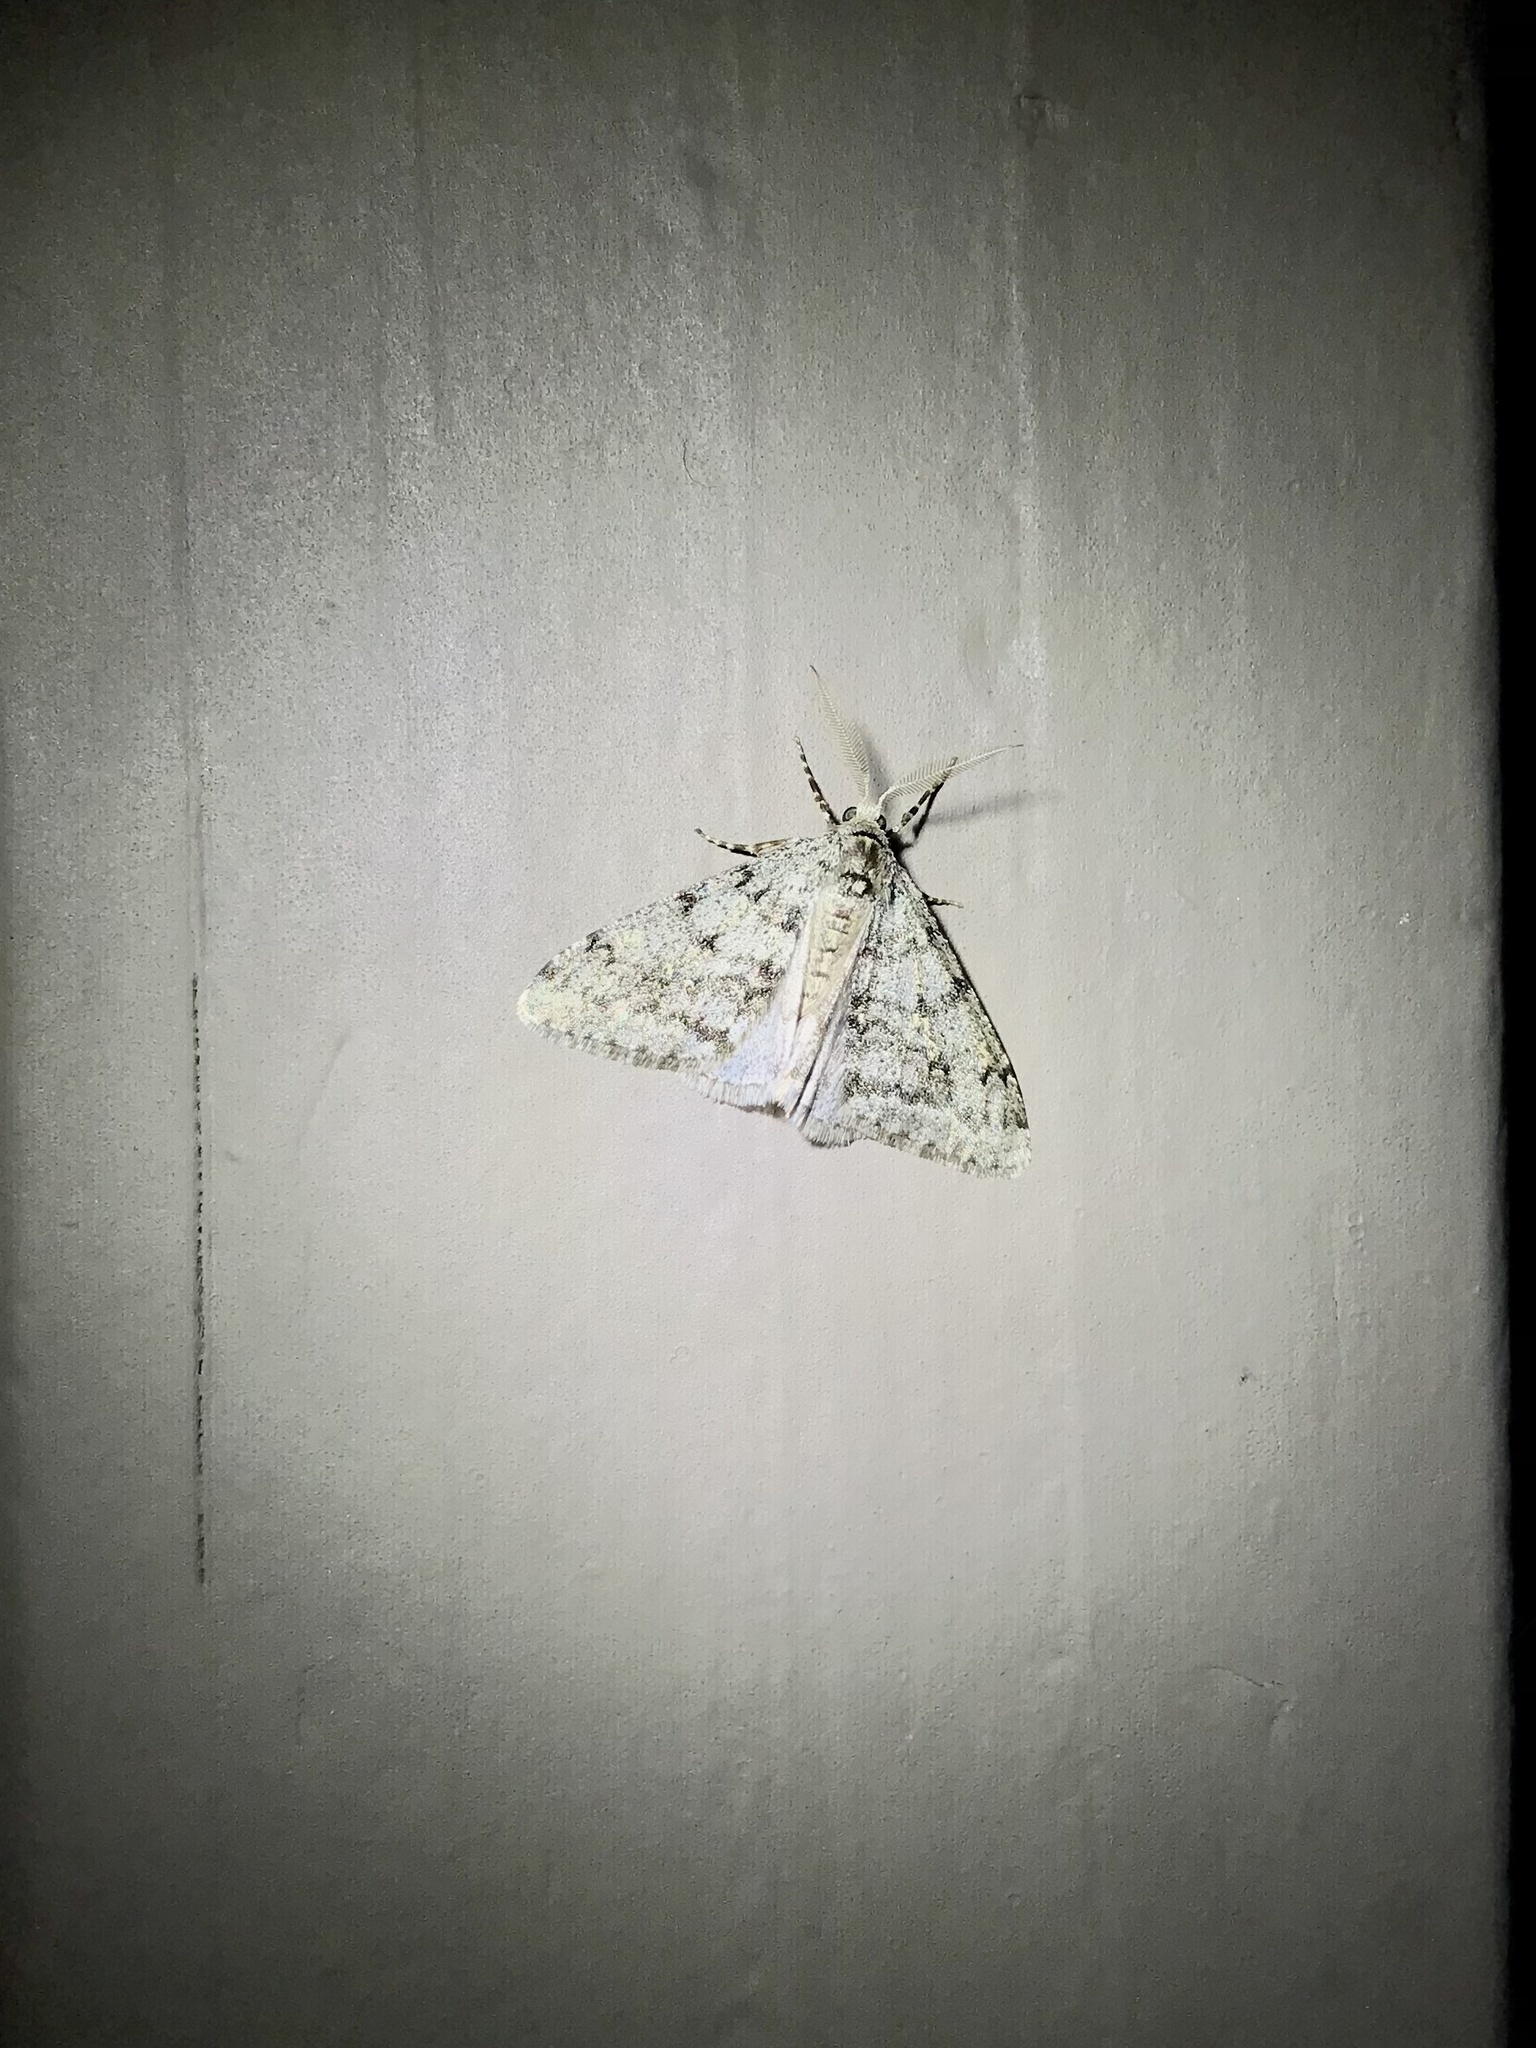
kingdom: Animalia
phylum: Arthropoda
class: Insecta
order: Lepidoptera
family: Geometridae
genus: Phigalia
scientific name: Phigalia strigataria
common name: Small phigalia
